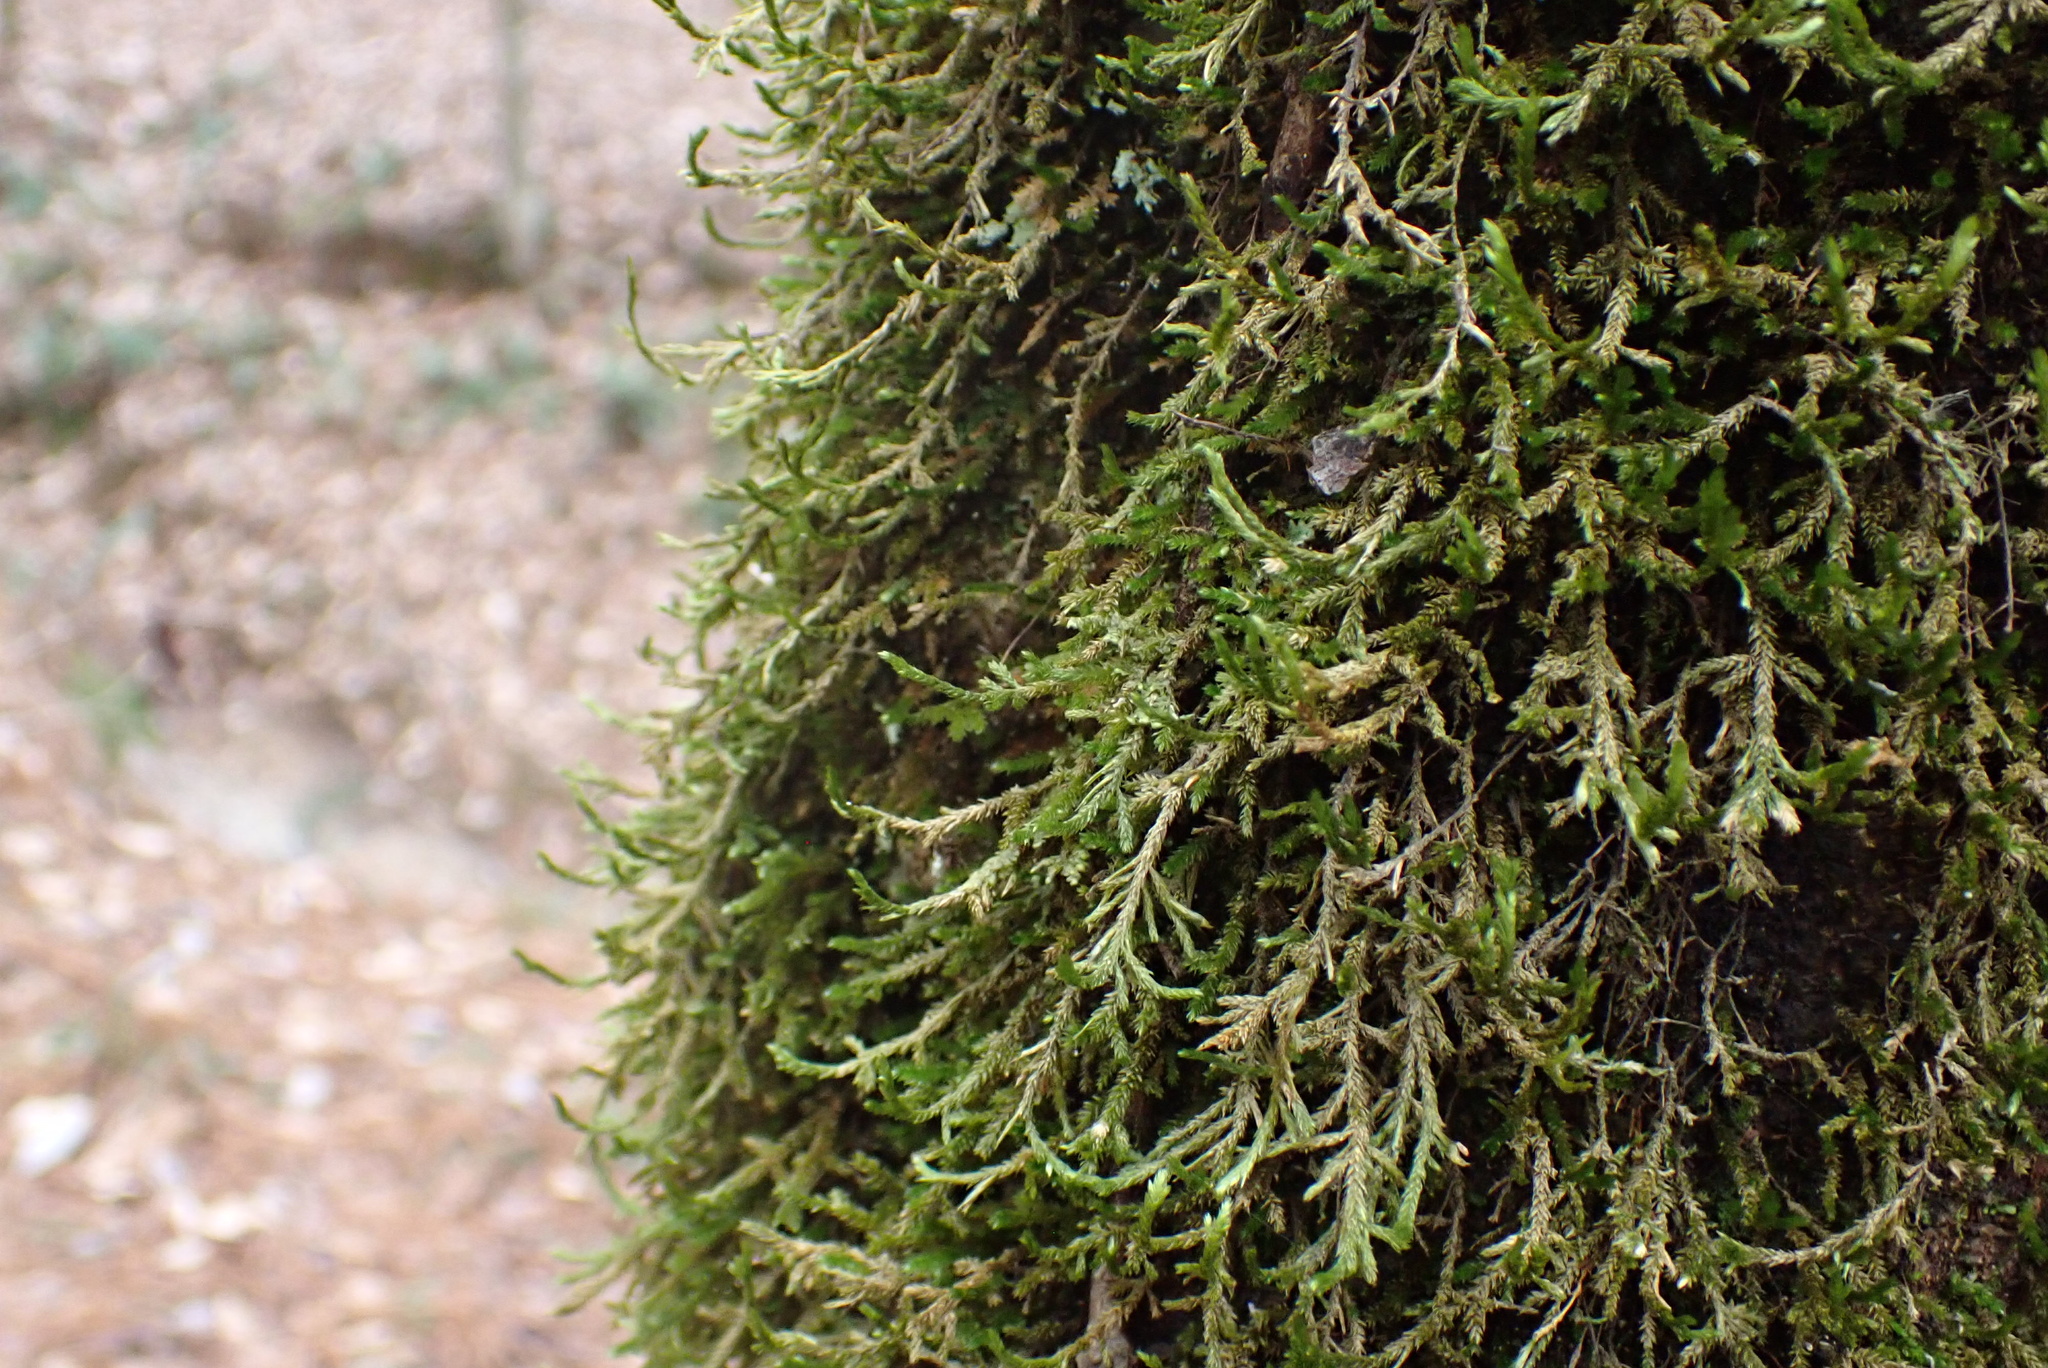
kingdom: Plantae
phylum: Bryophyta
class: Bryopsida
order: Hypnales
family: Neckeraceae
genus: Forsstroemia
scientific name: Forsstroemia trichomitria
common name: Fan moss
